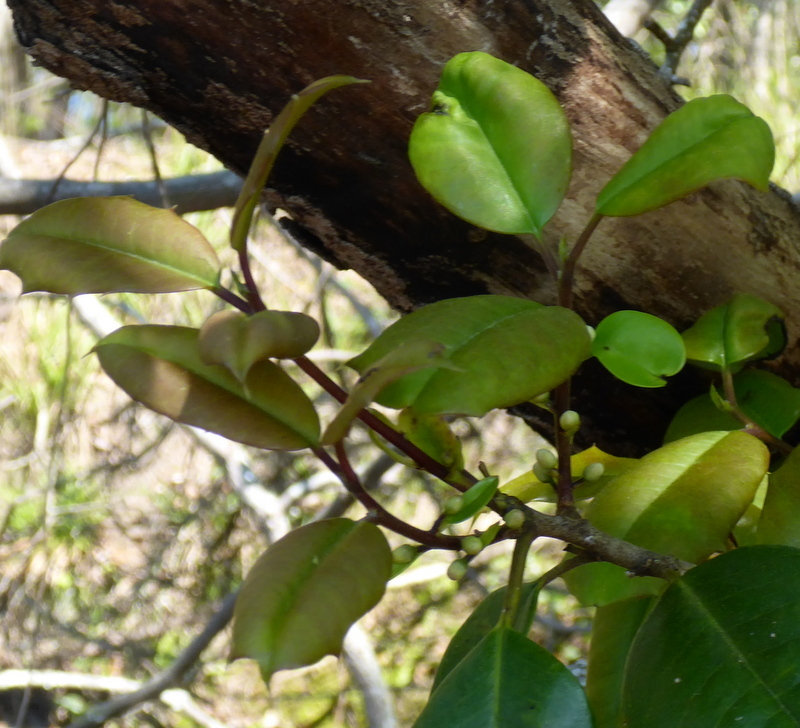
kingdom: Plantae
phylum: Tracheophyta
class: Magnoliopsida
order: Aquifoliales
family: Aquifoliaceae
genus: Ilex
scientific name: Ilex opaca
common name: American holly
